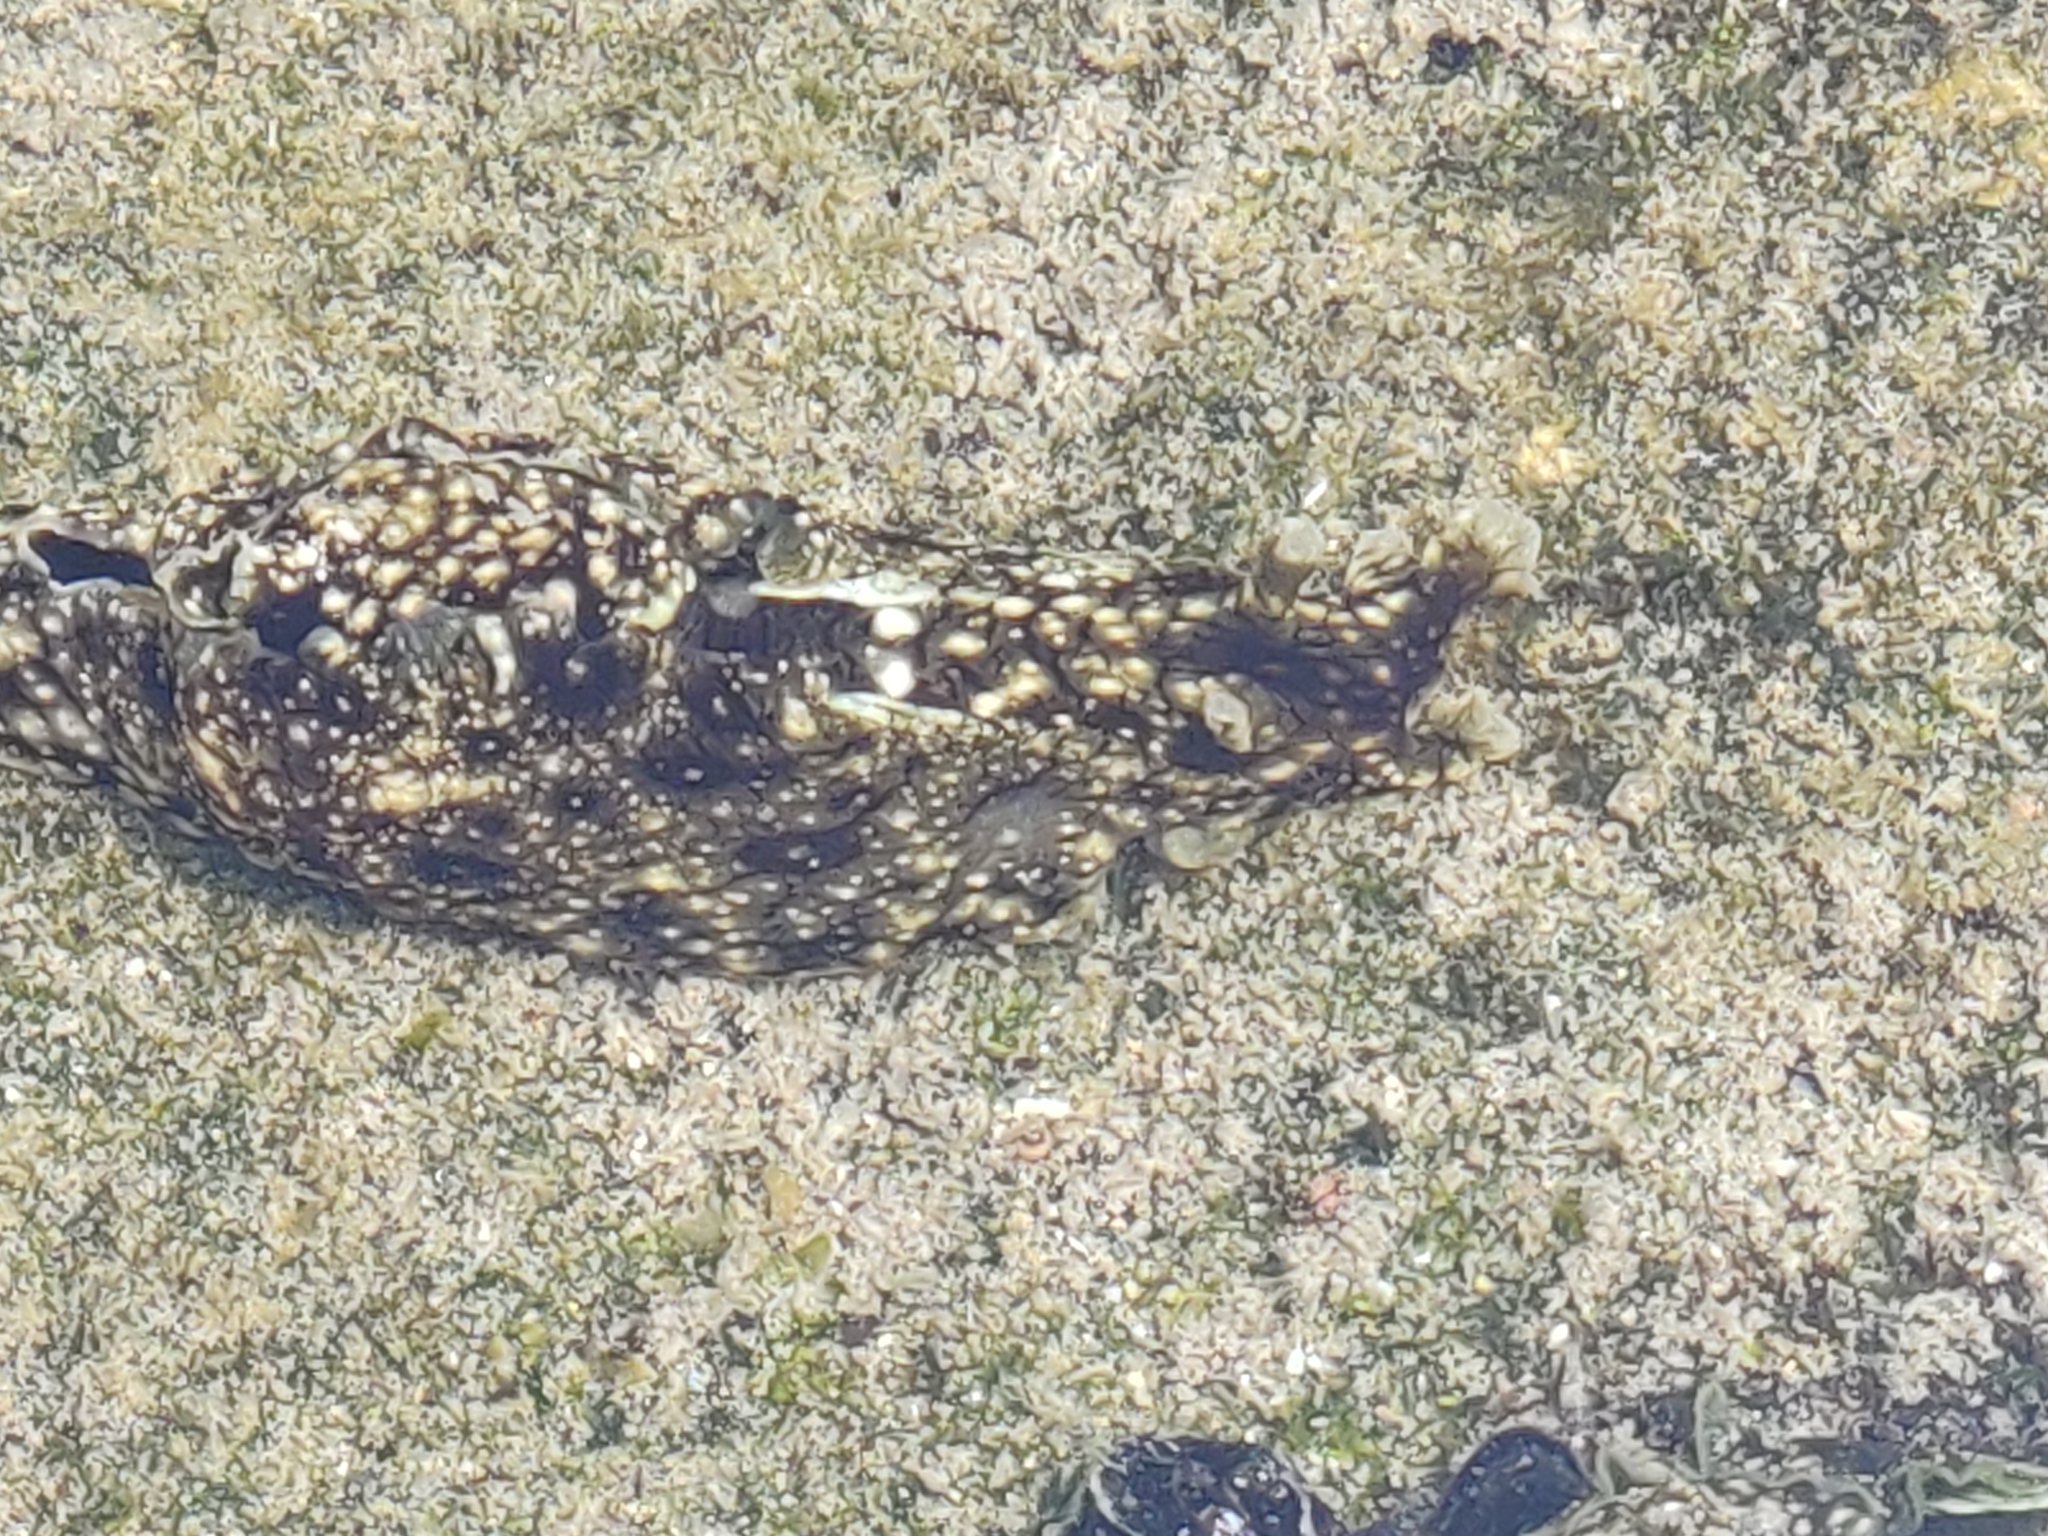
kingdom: Animalia
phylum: Mollusca
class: Gastropoda
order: Aplysiida
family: Aplysiidae
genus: Aplysia
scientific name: Aplysia argus
